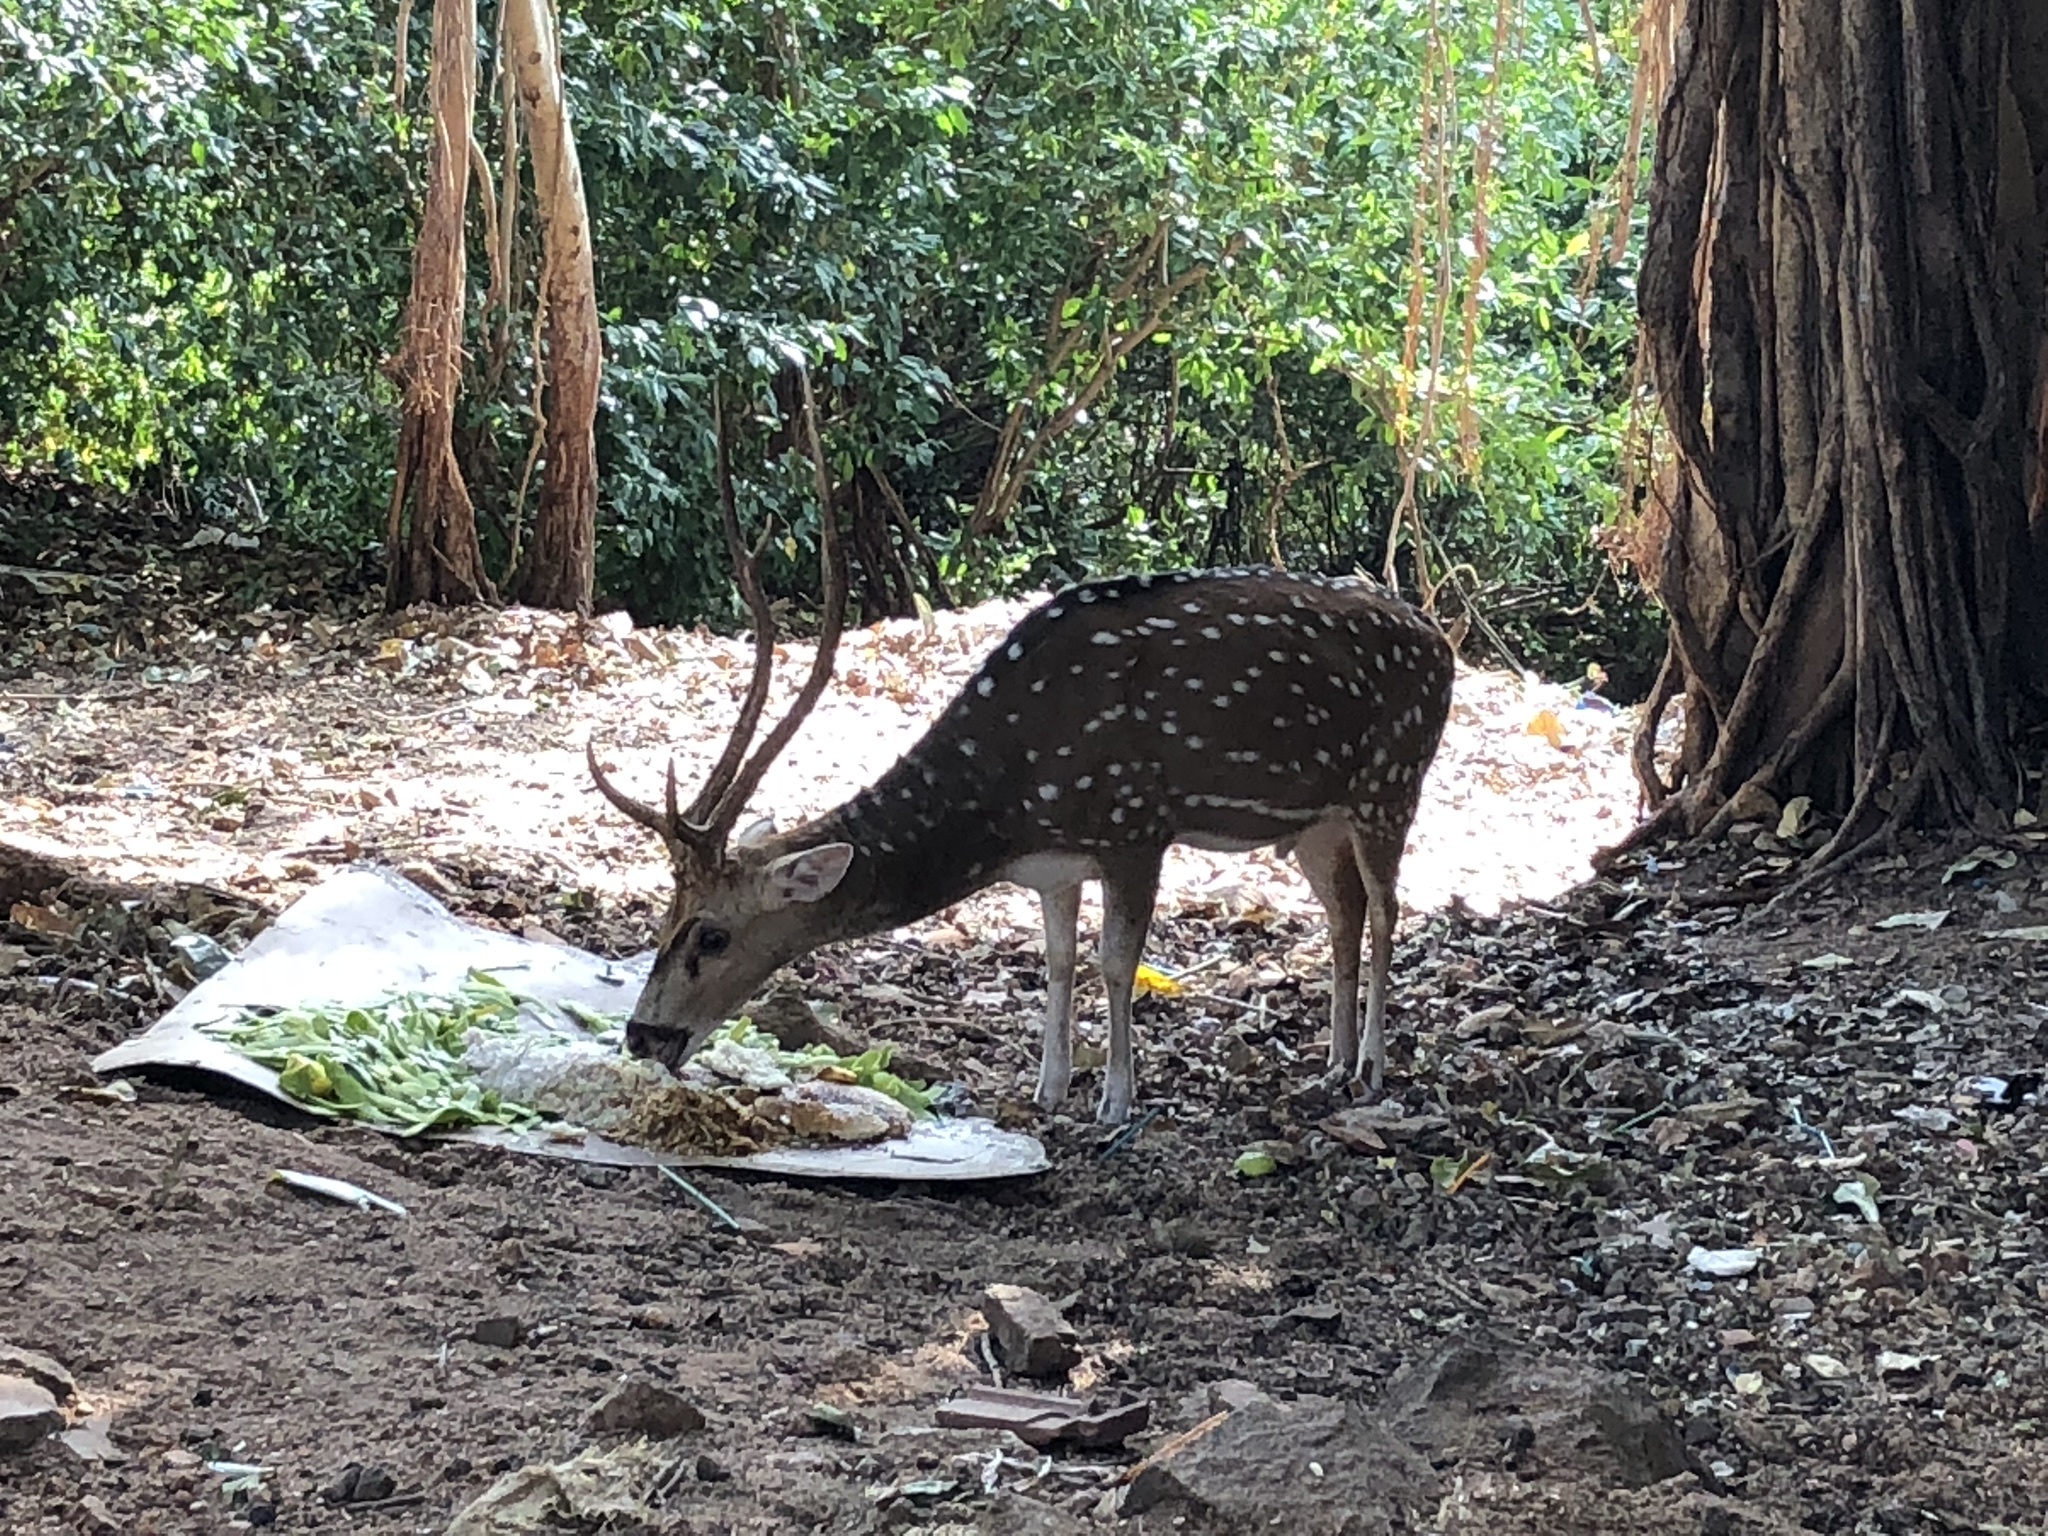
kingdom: Animalia
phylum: Chordata
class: Mammalia
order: Artiodactyla
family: Cervidae
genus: Axis
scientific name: Axis axis
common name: Chital
